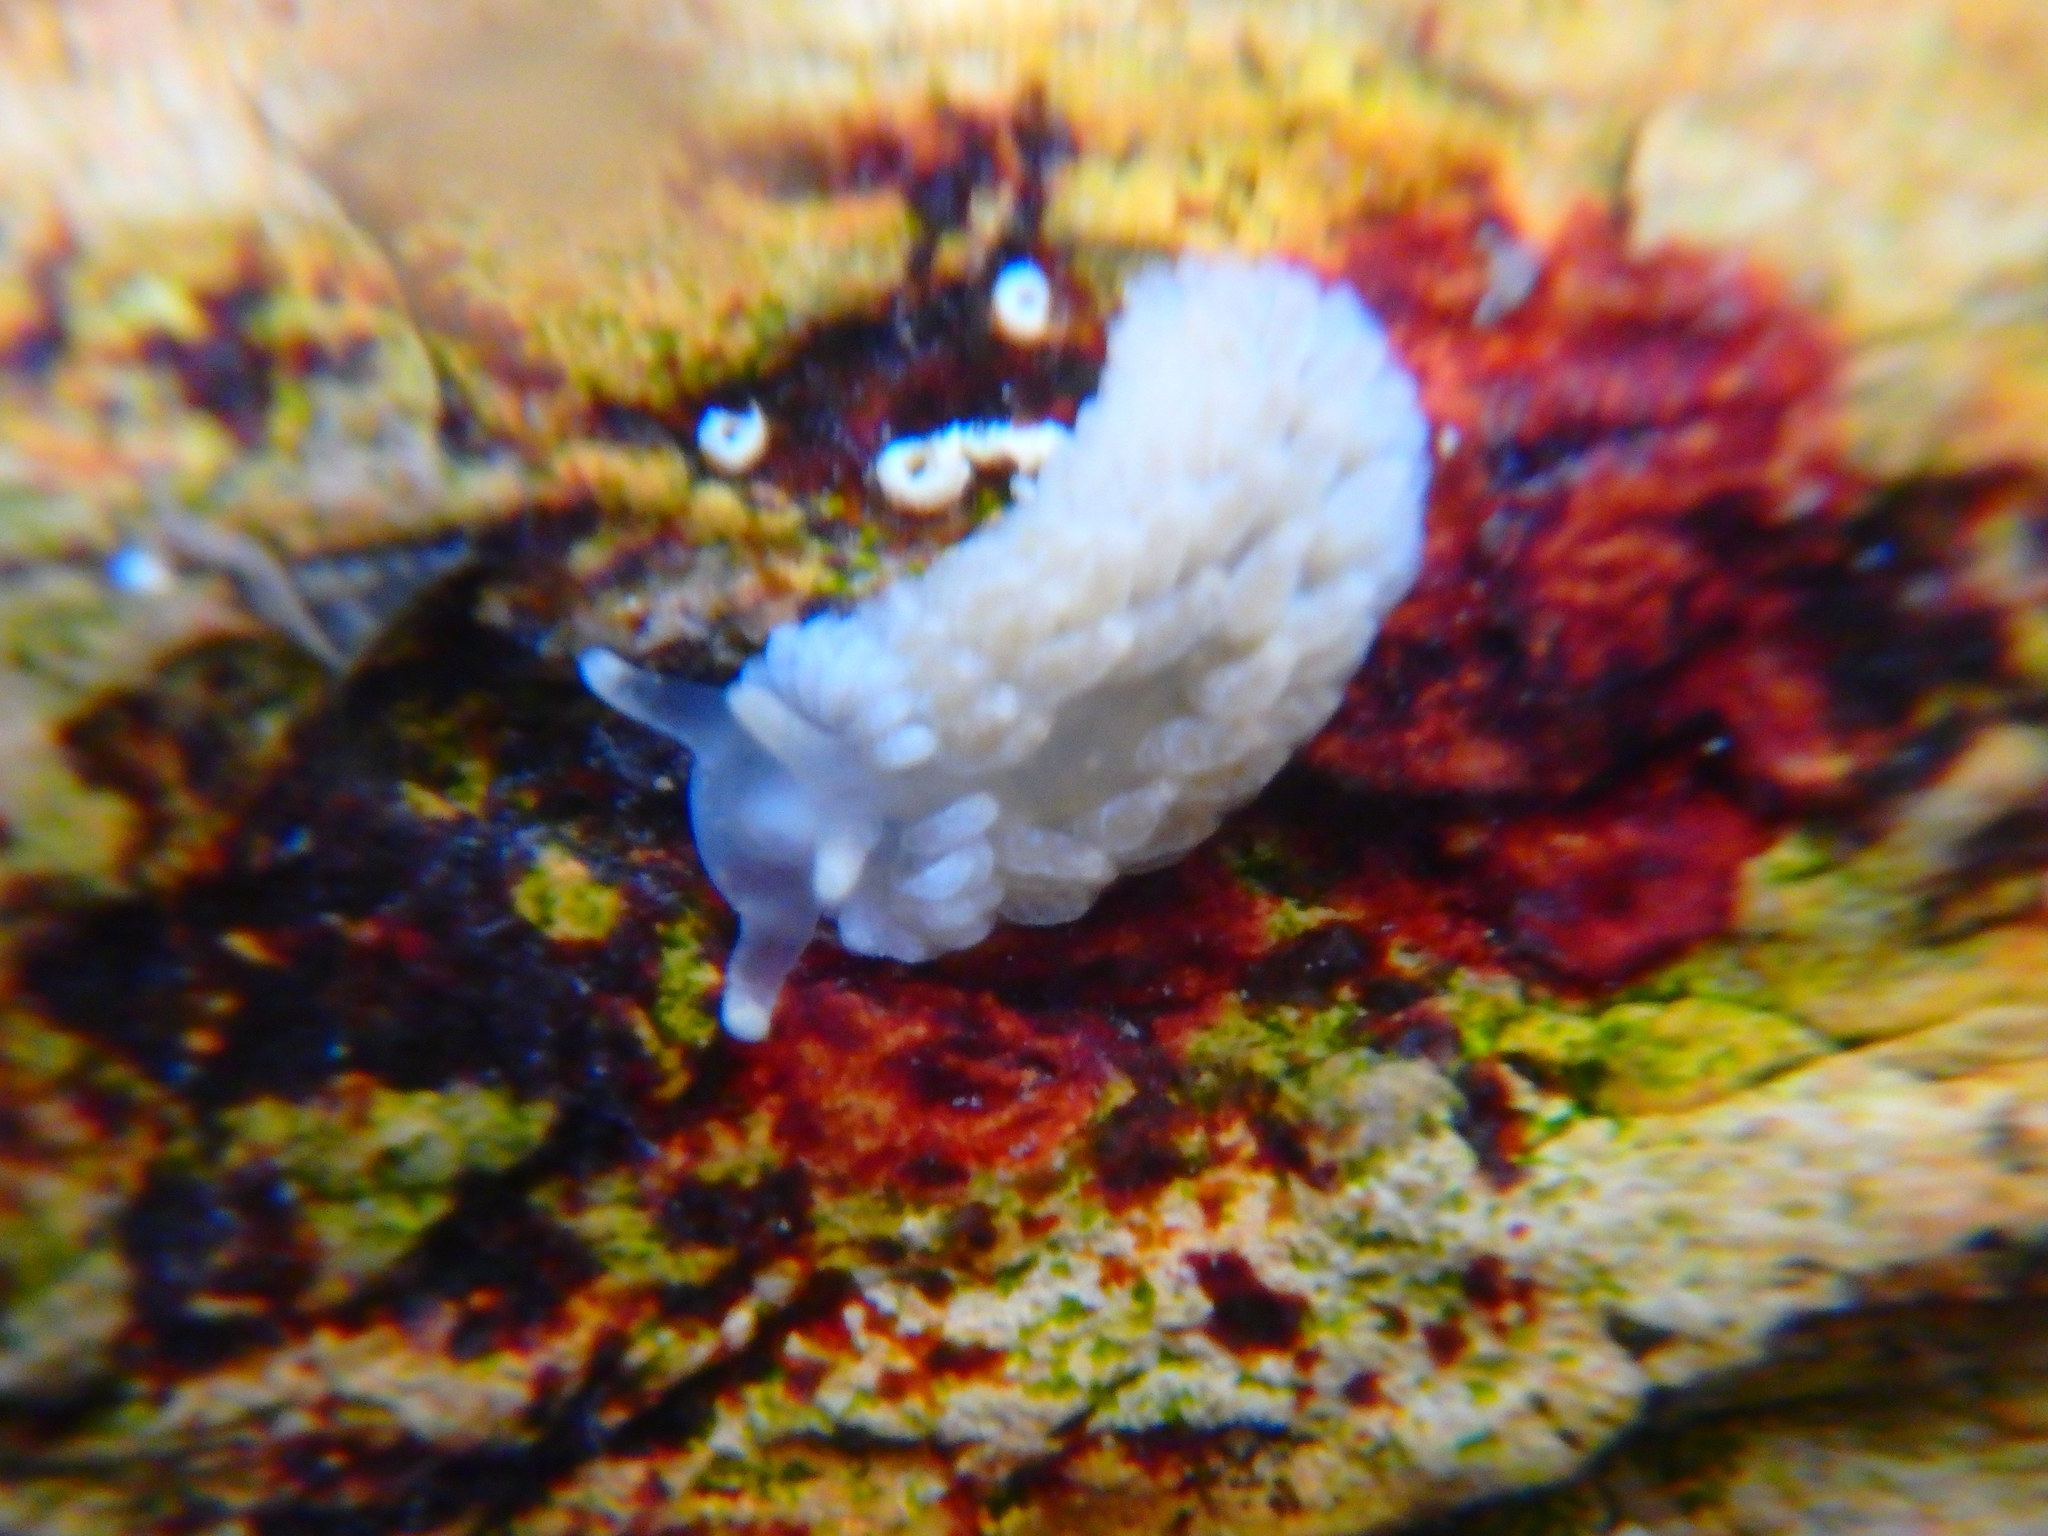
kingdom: Animalia
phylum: Mollusca
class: Gastropoda
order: Nudibranchia
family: Aeolidiidae
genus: Aeolidiella
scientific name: Aeolidiella alderi
